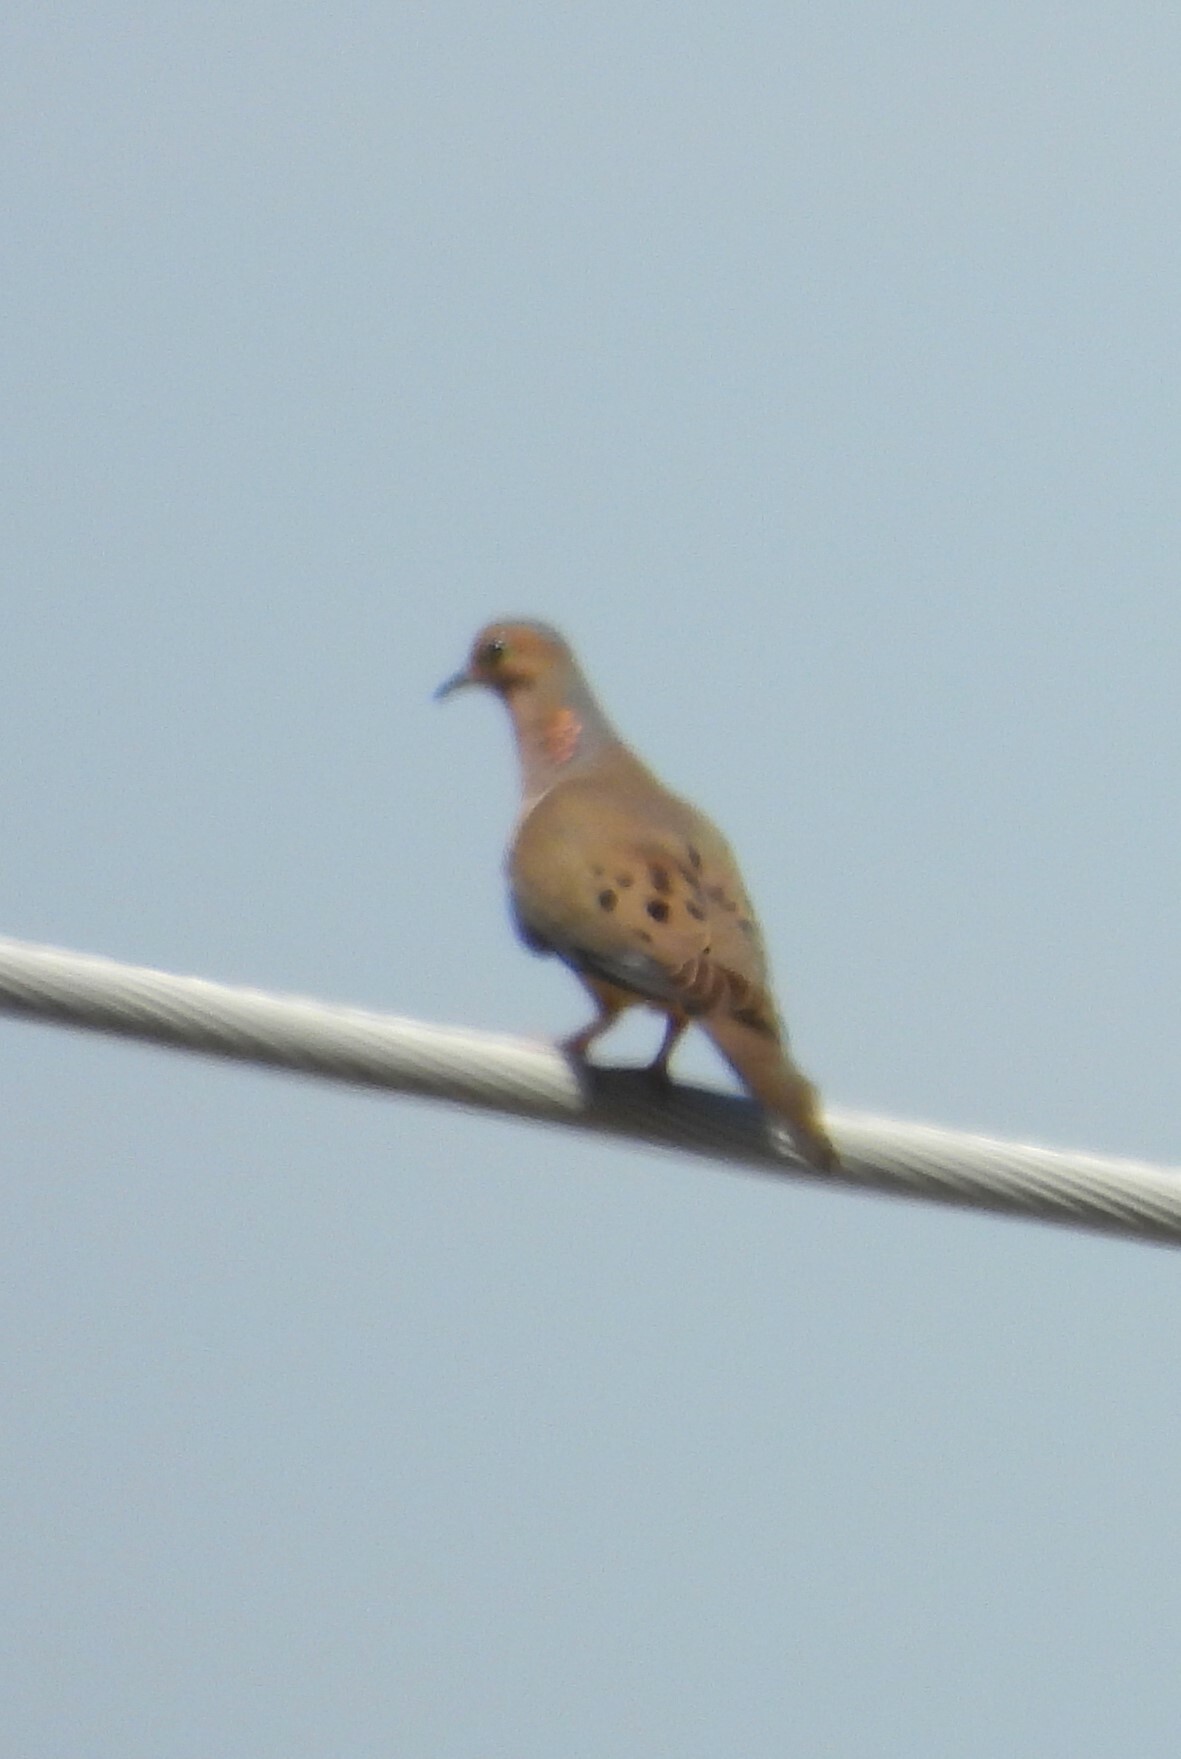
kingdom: Animalia
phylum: Chordata
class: Aves
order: Columbiformes
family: Columbidae
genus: Zenaida
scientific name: Zenaida macroura
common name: Mourning dove
